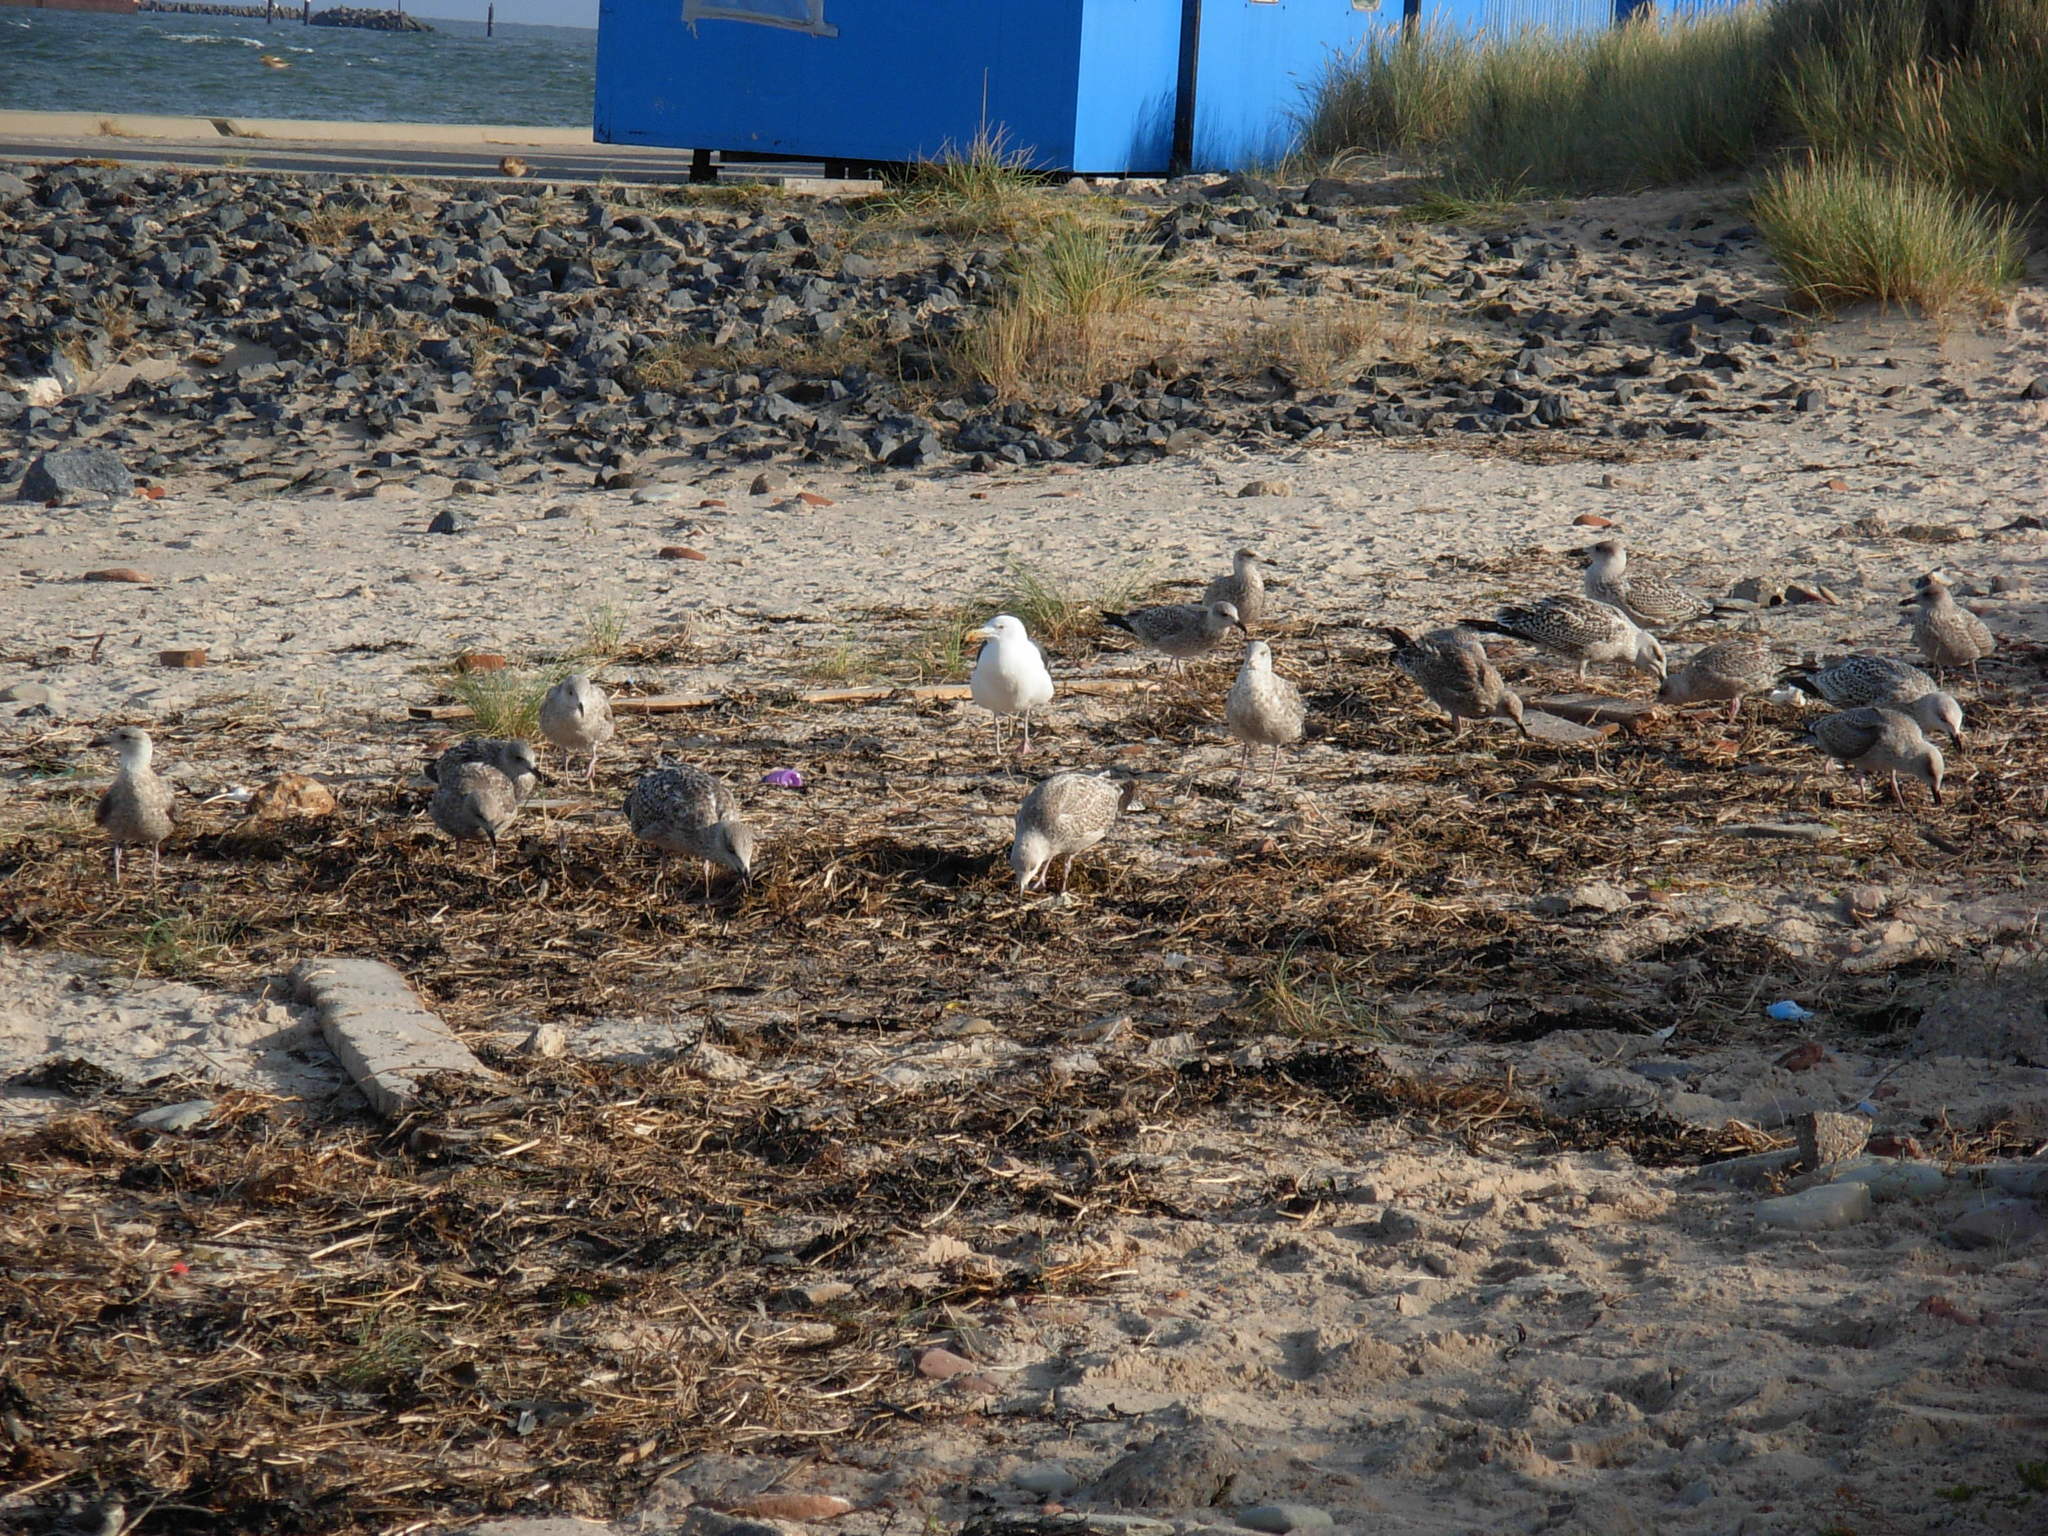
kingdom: Animalia
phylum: Chordata
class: Aves
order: Charadriiformes
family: Laridae
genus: Larus
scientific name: Larus marinus
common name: Great black-backed gull
